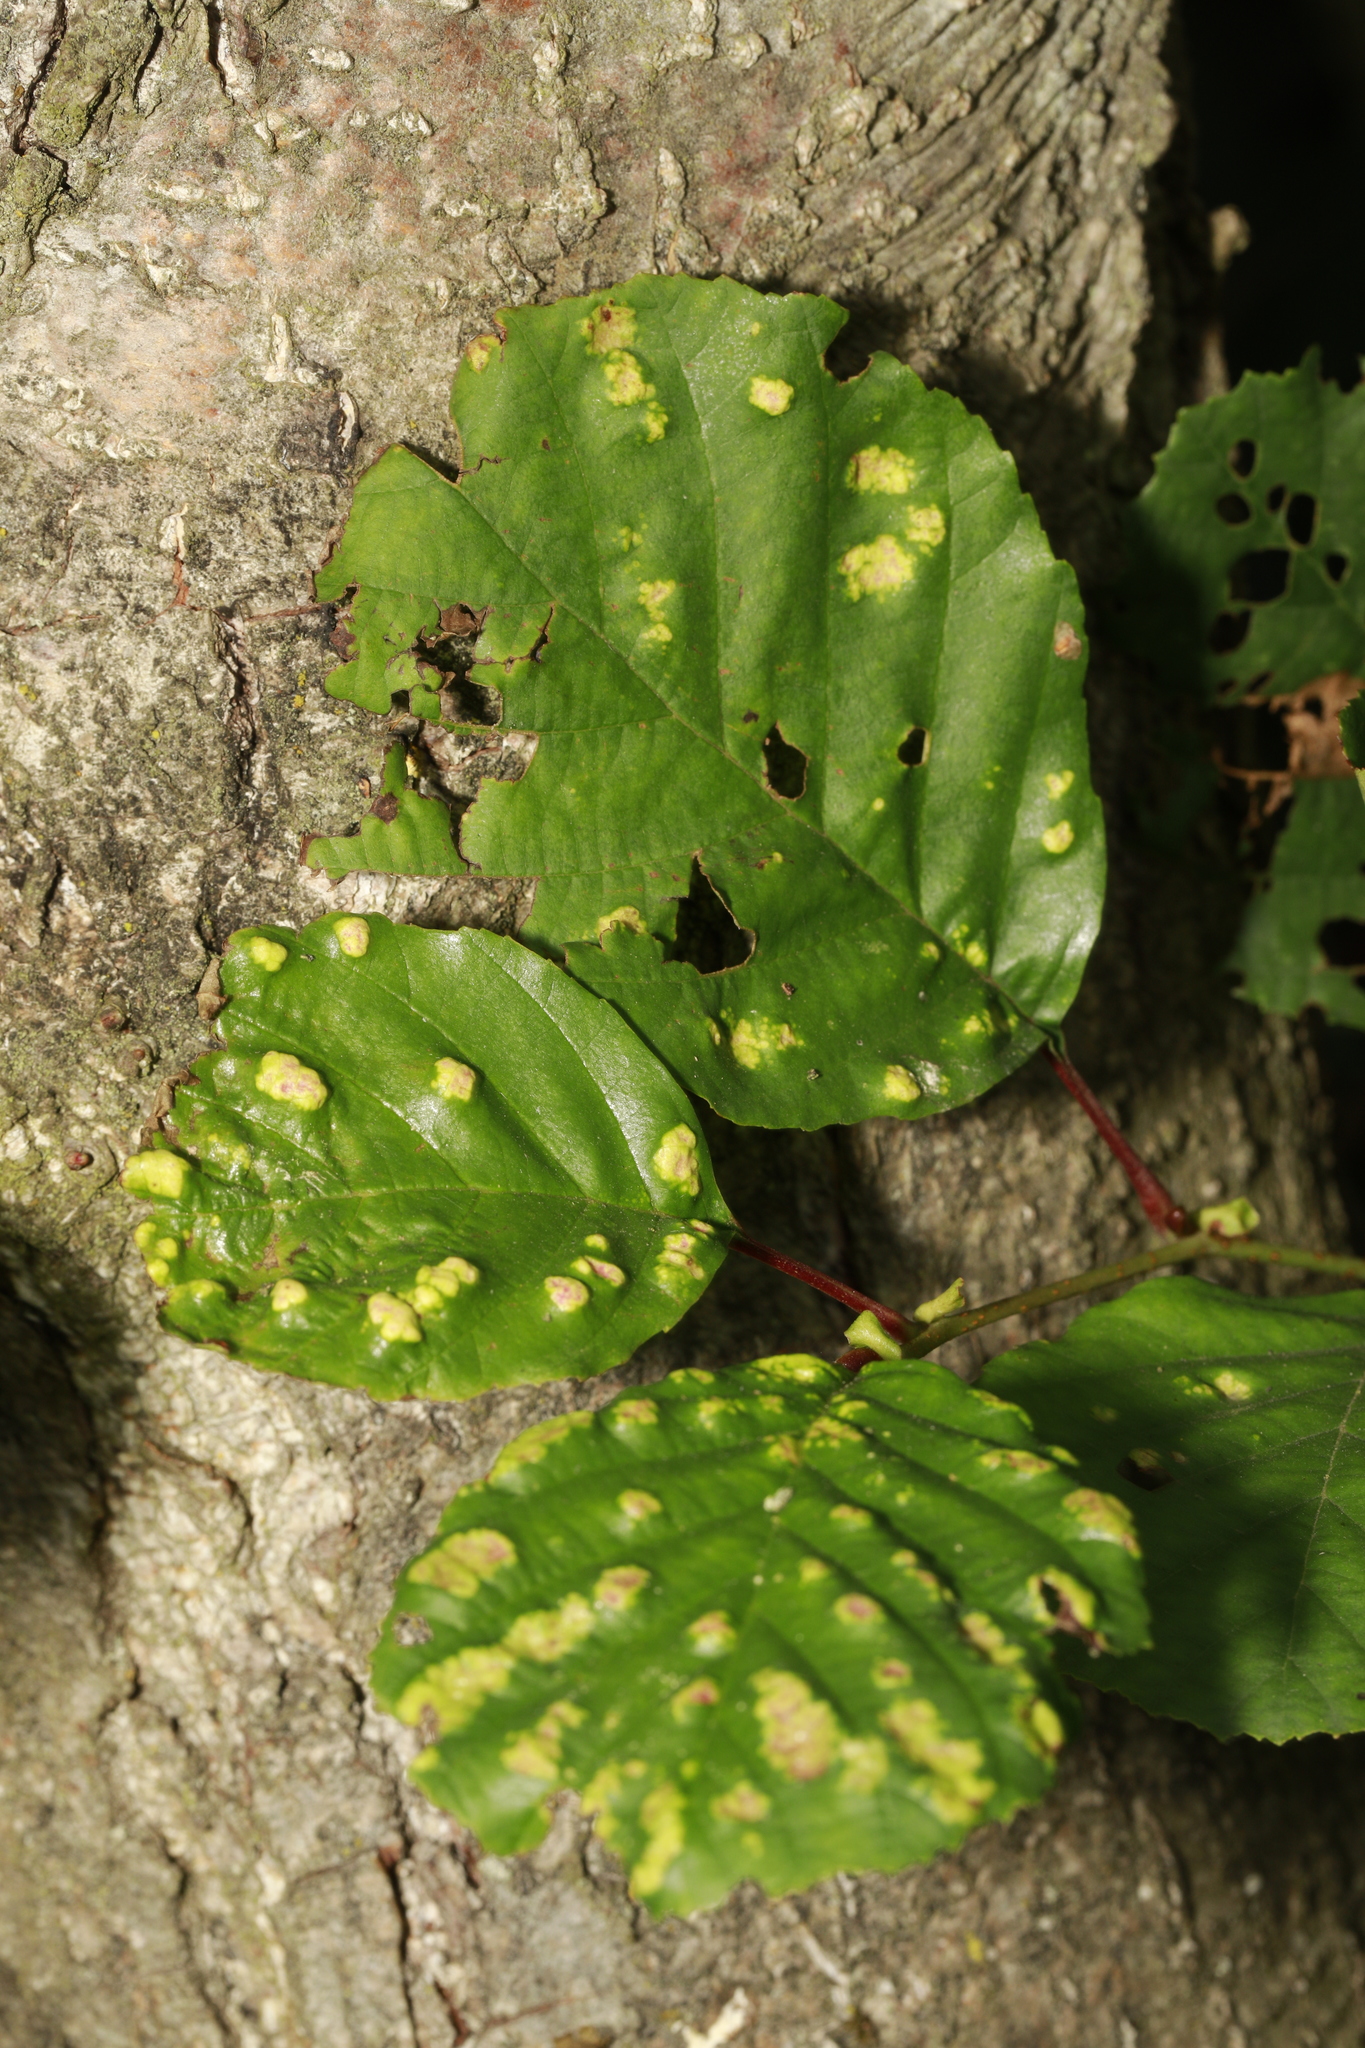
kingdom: Plantae
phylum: Tracheophyta
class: Magnoliopsida
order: Fagales
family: Betulaceae
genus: Alnus
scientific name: Alnus glutinosa
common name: Black alder
